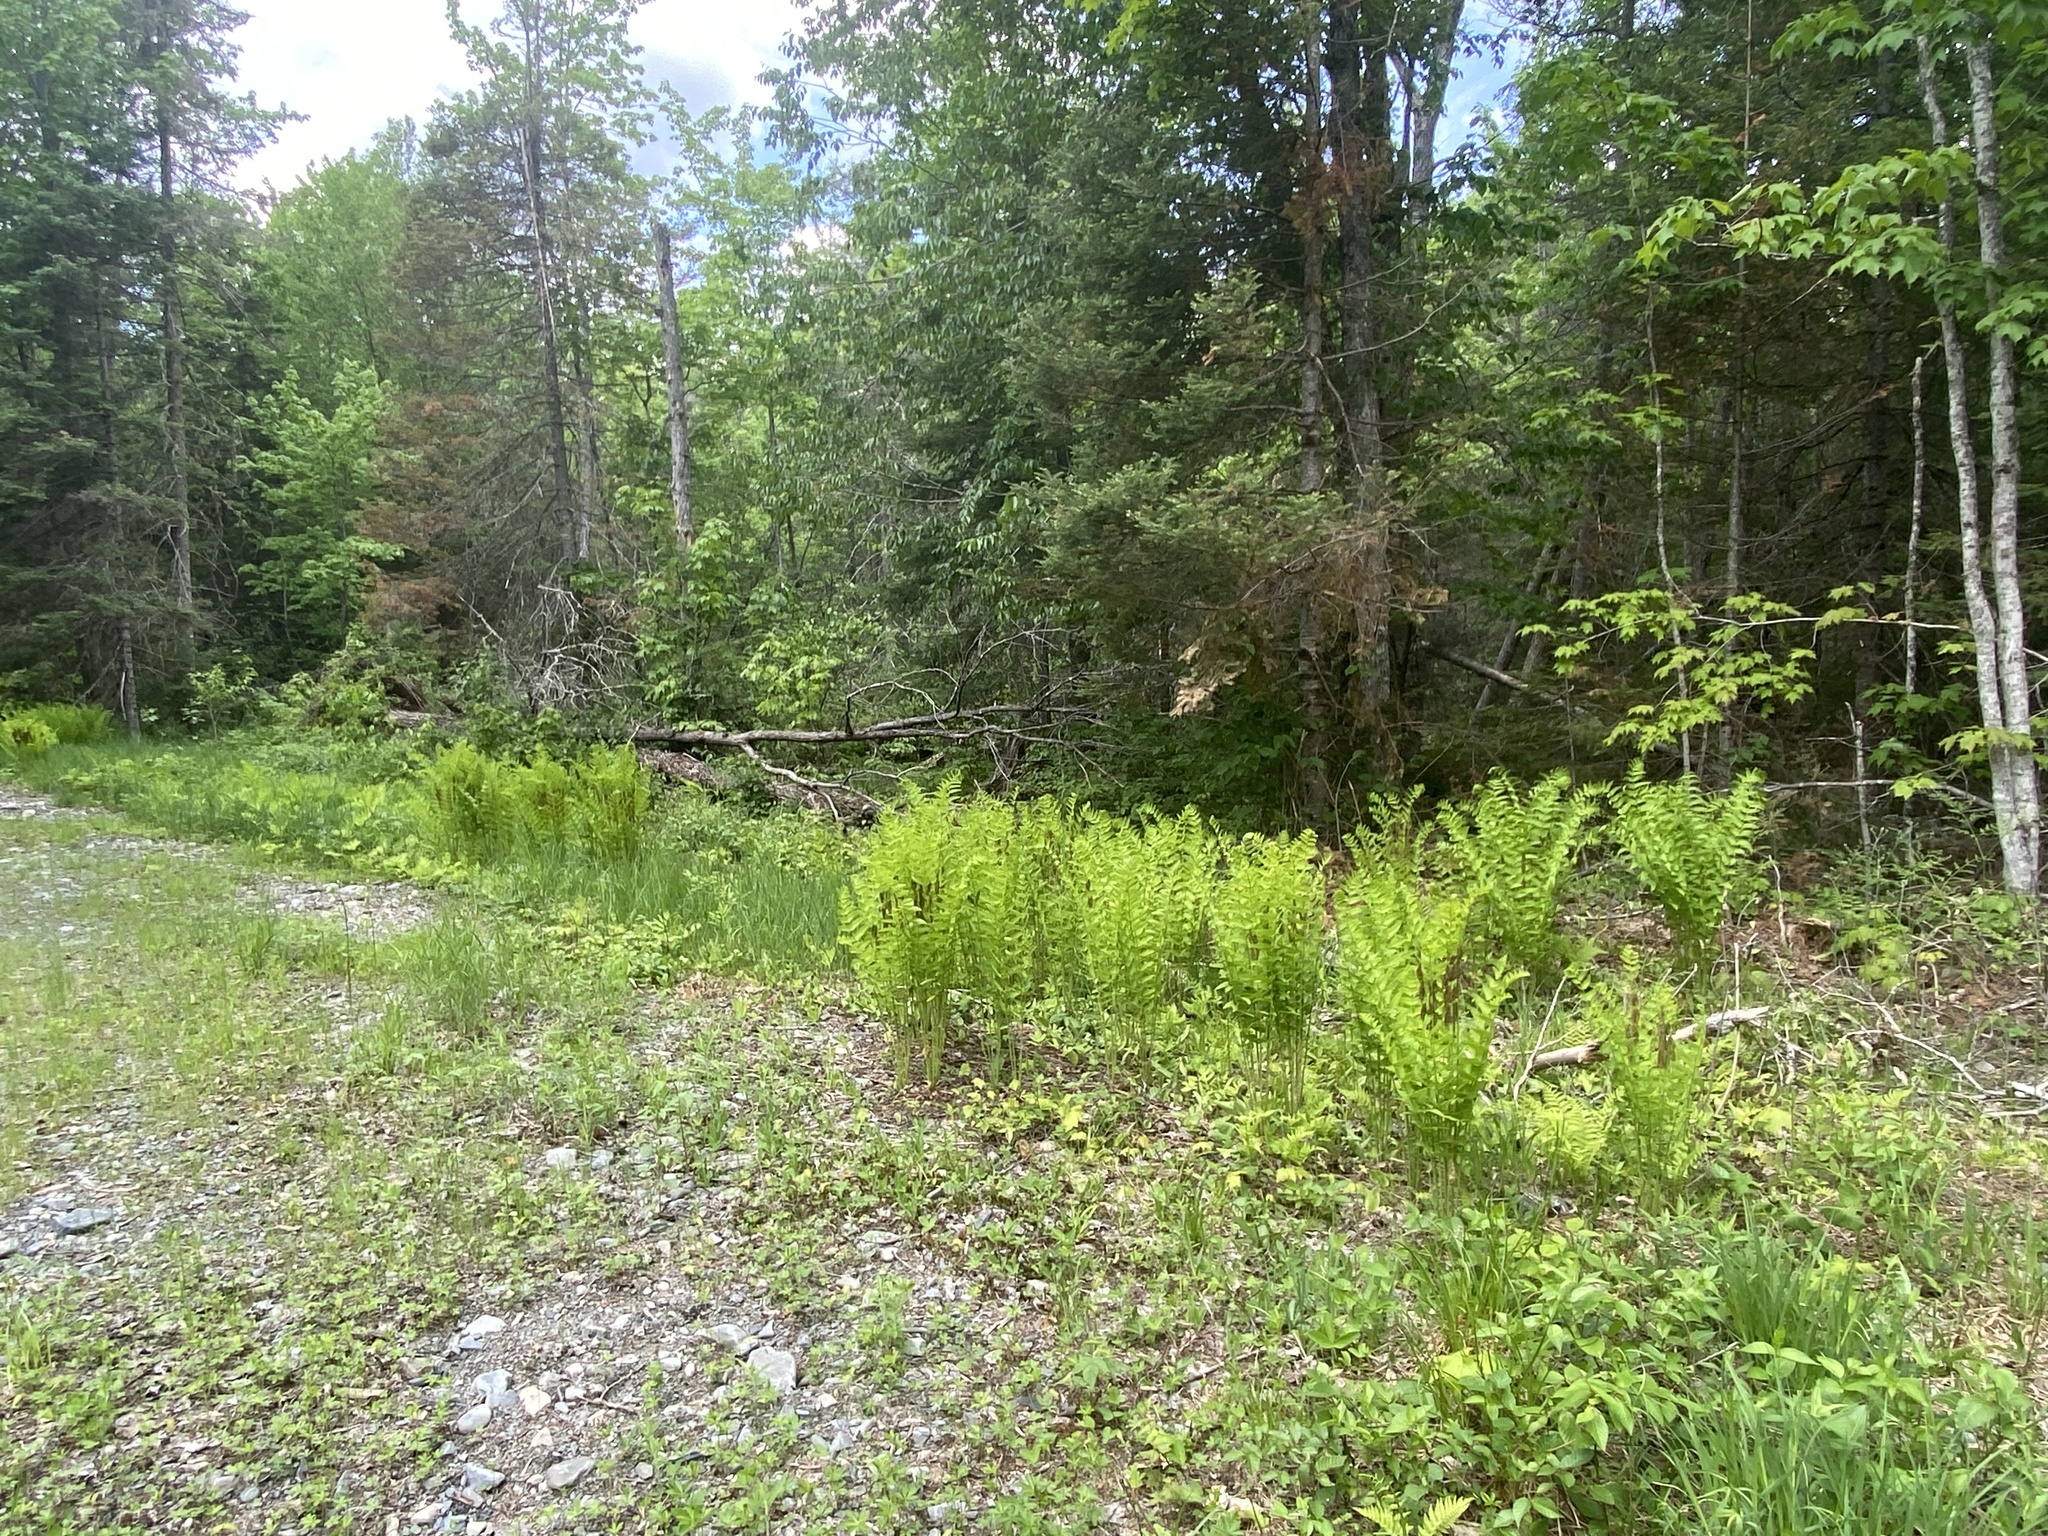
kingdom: Plantae
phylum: Tracheophyta
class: Polypodiopsida
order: Osmundales
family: Osmundaceae
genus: Claytosmunda
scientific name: Claytosmunda claytoniana
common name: Clayton's fern
